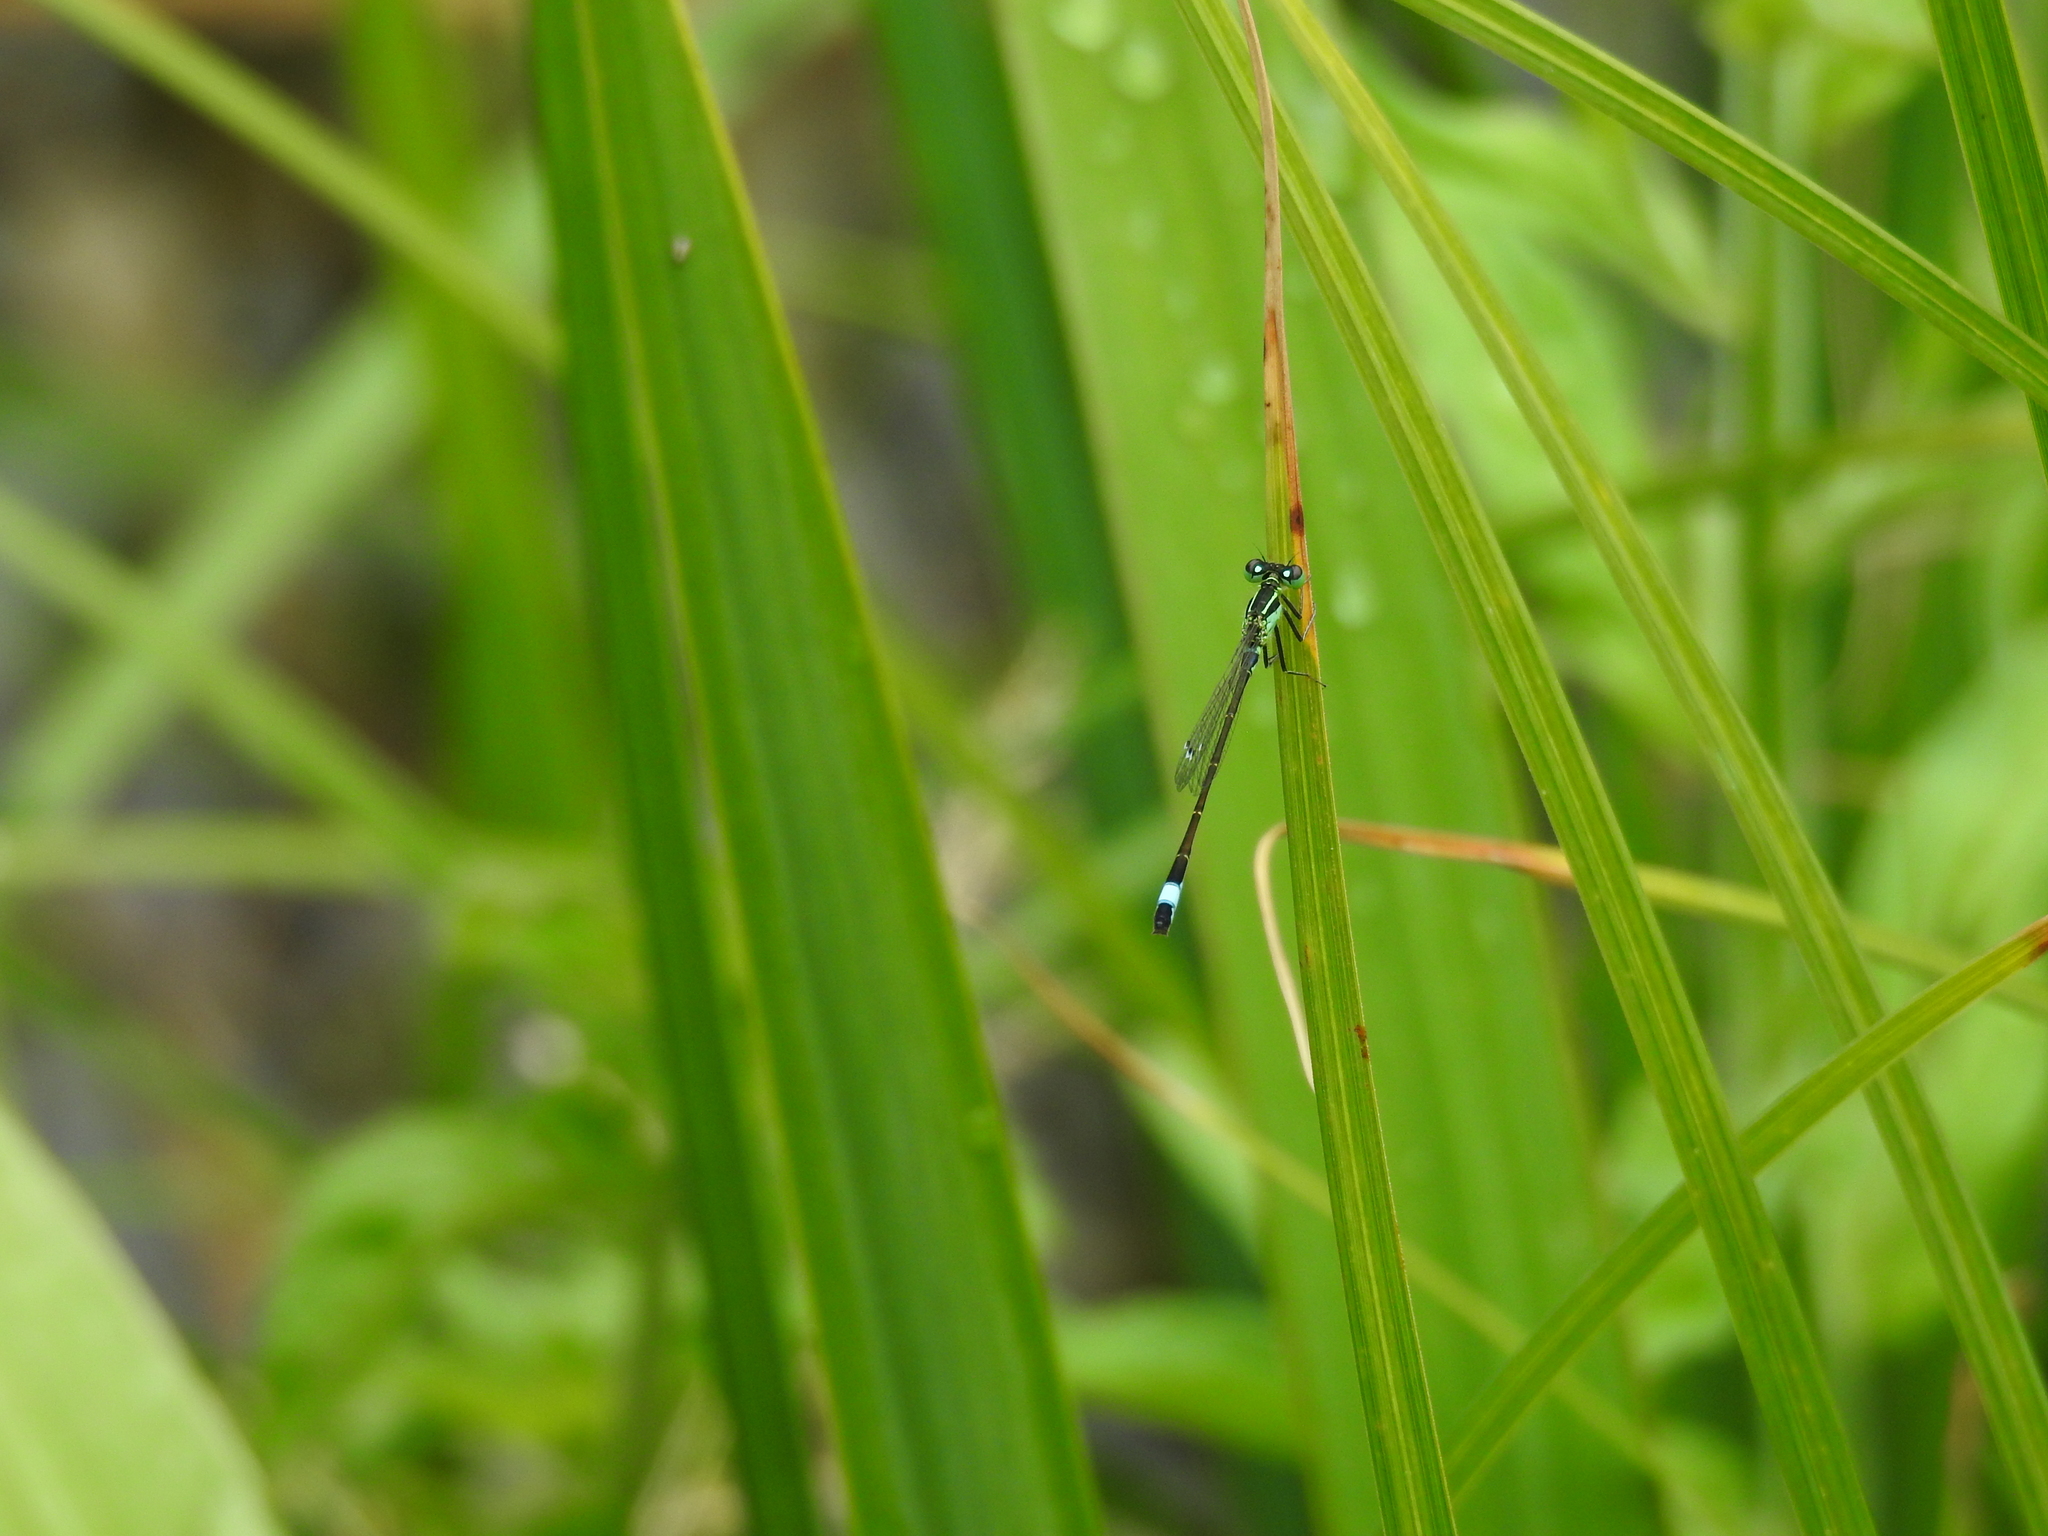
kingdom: Animalia
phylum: Arthropoda
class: Insecta
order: Odonata
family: Coenagrionidae
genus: Ischnura
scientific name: Ischnura elegans
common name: Blue-tailed damselfly
